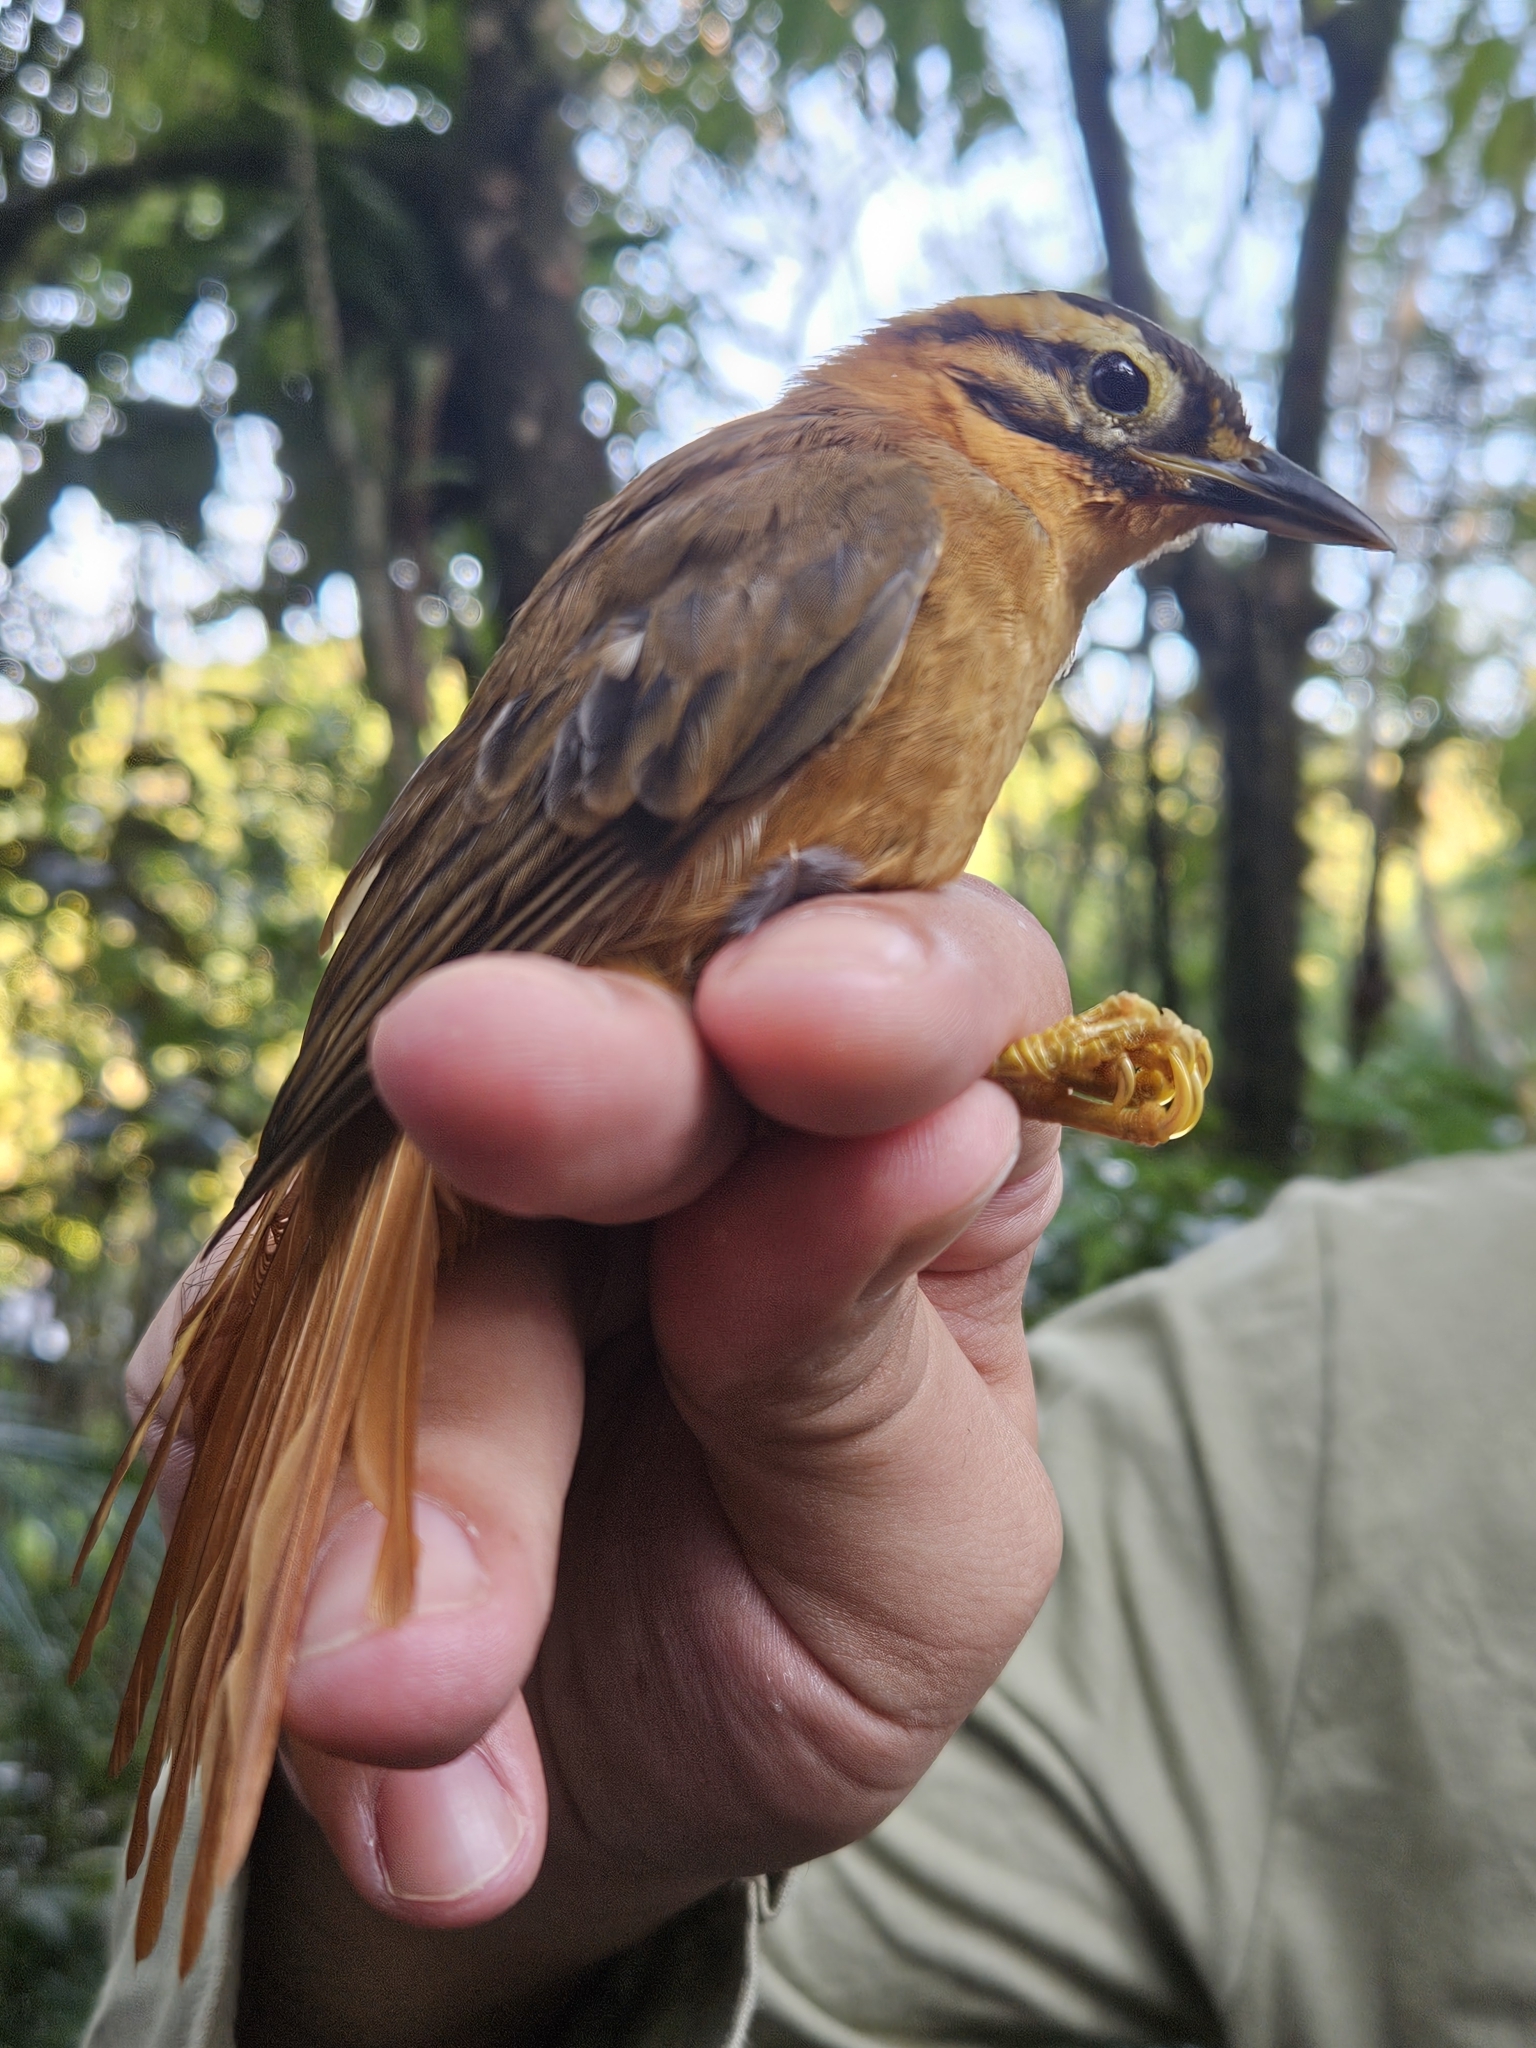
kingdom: Animalia
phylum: Chordata
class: Aves
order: Passeriformes
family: Furnariidae
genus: Philydor
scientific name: Philydor atricapillus
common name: Black-capped foliage-gleaner
